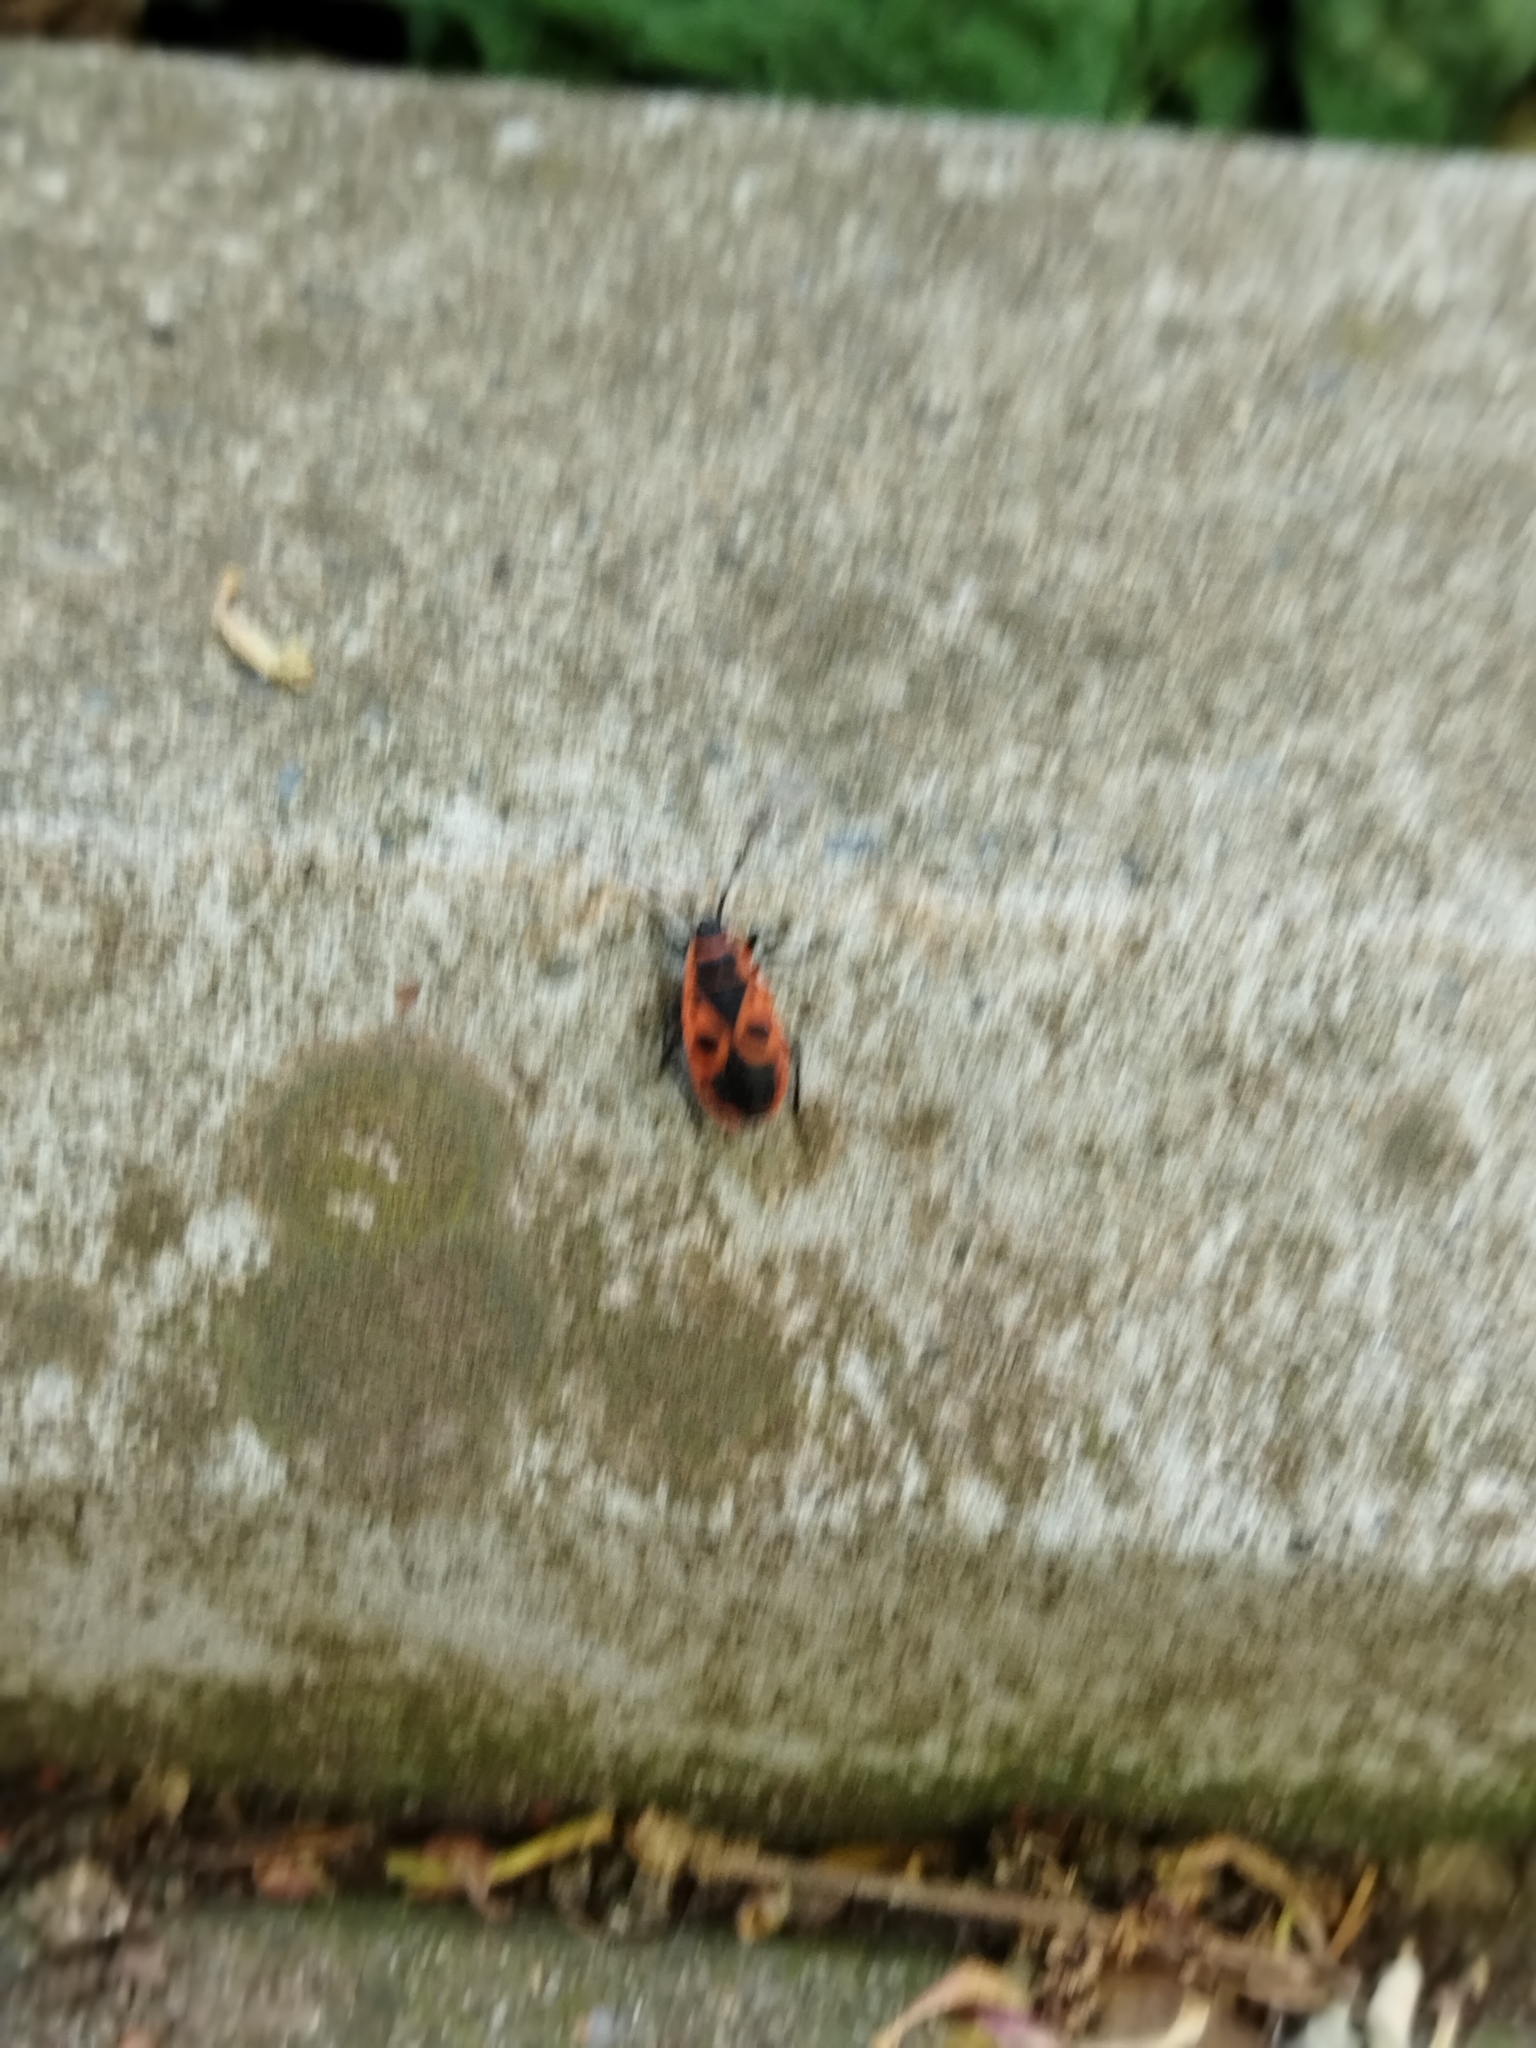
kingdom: Animalia
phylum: Arthropoda
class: Insecta
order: Hemiptera
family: Pyrrhocoridae
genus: Pyrrhocoris
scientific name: Pyrrhocoris apterus
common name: Firebug
